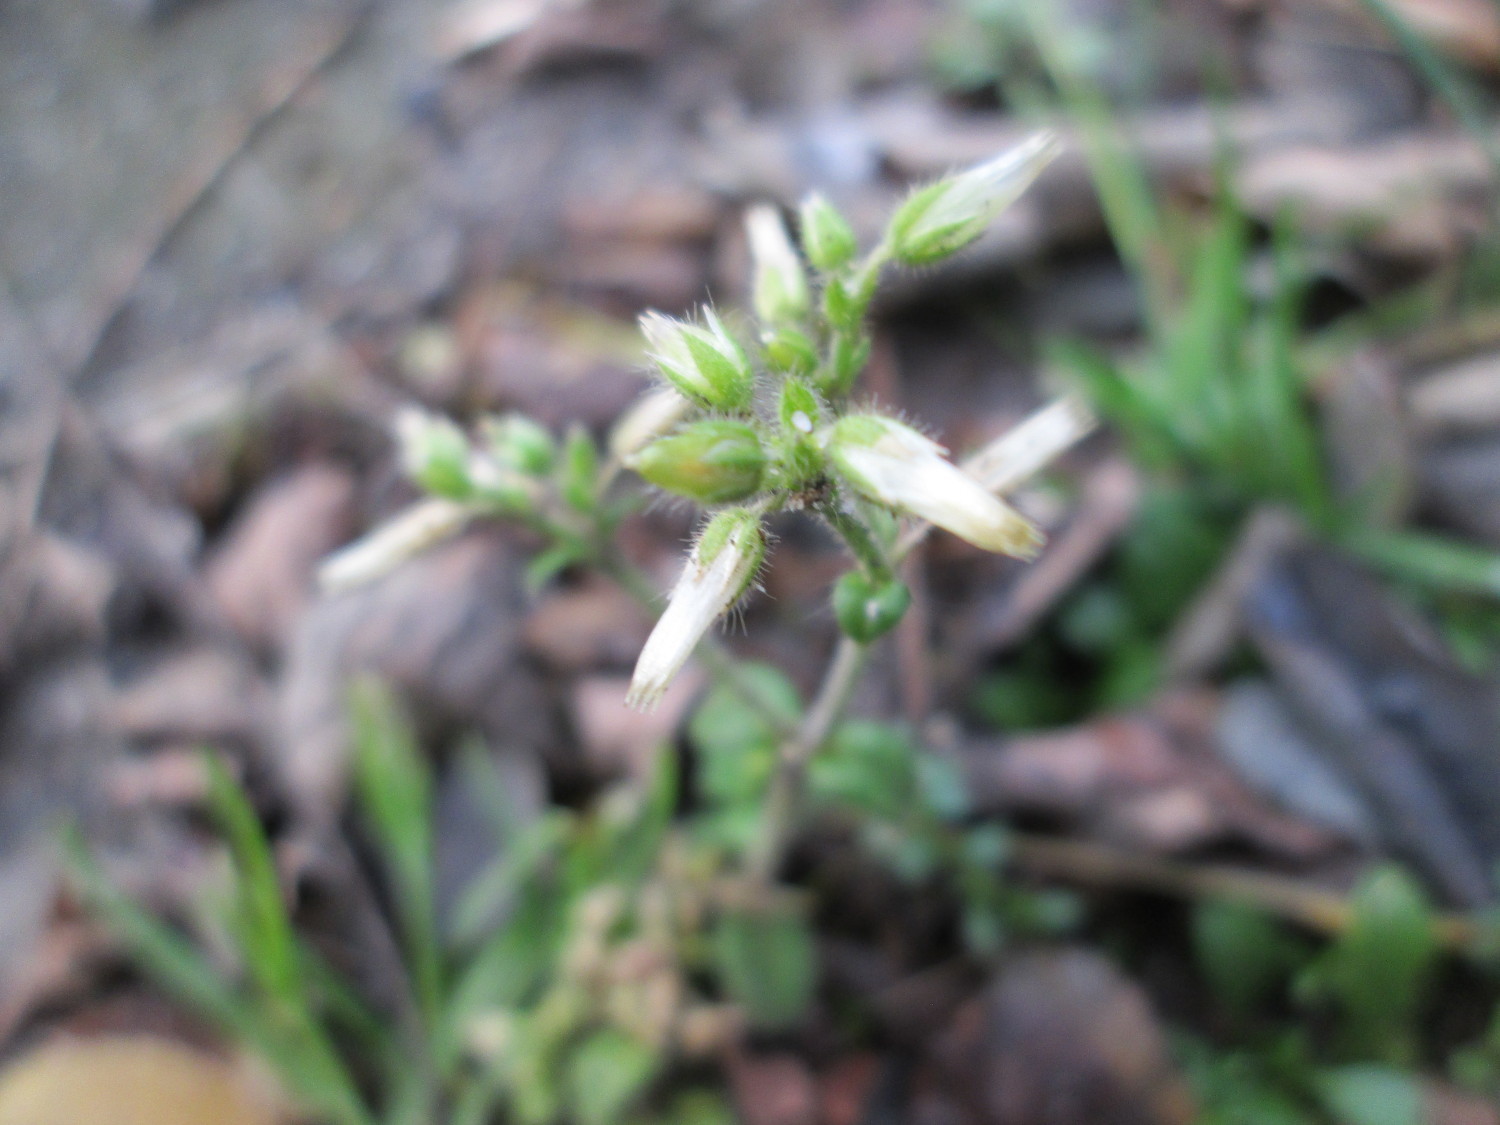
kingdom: Plantae
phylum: Tracheophyta
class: Magnoliopsida
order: Caryophyllales
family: Caryophyllaceae
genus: Cerastium
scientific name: Cerastium semidecandrum
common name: Little mouse-ear
